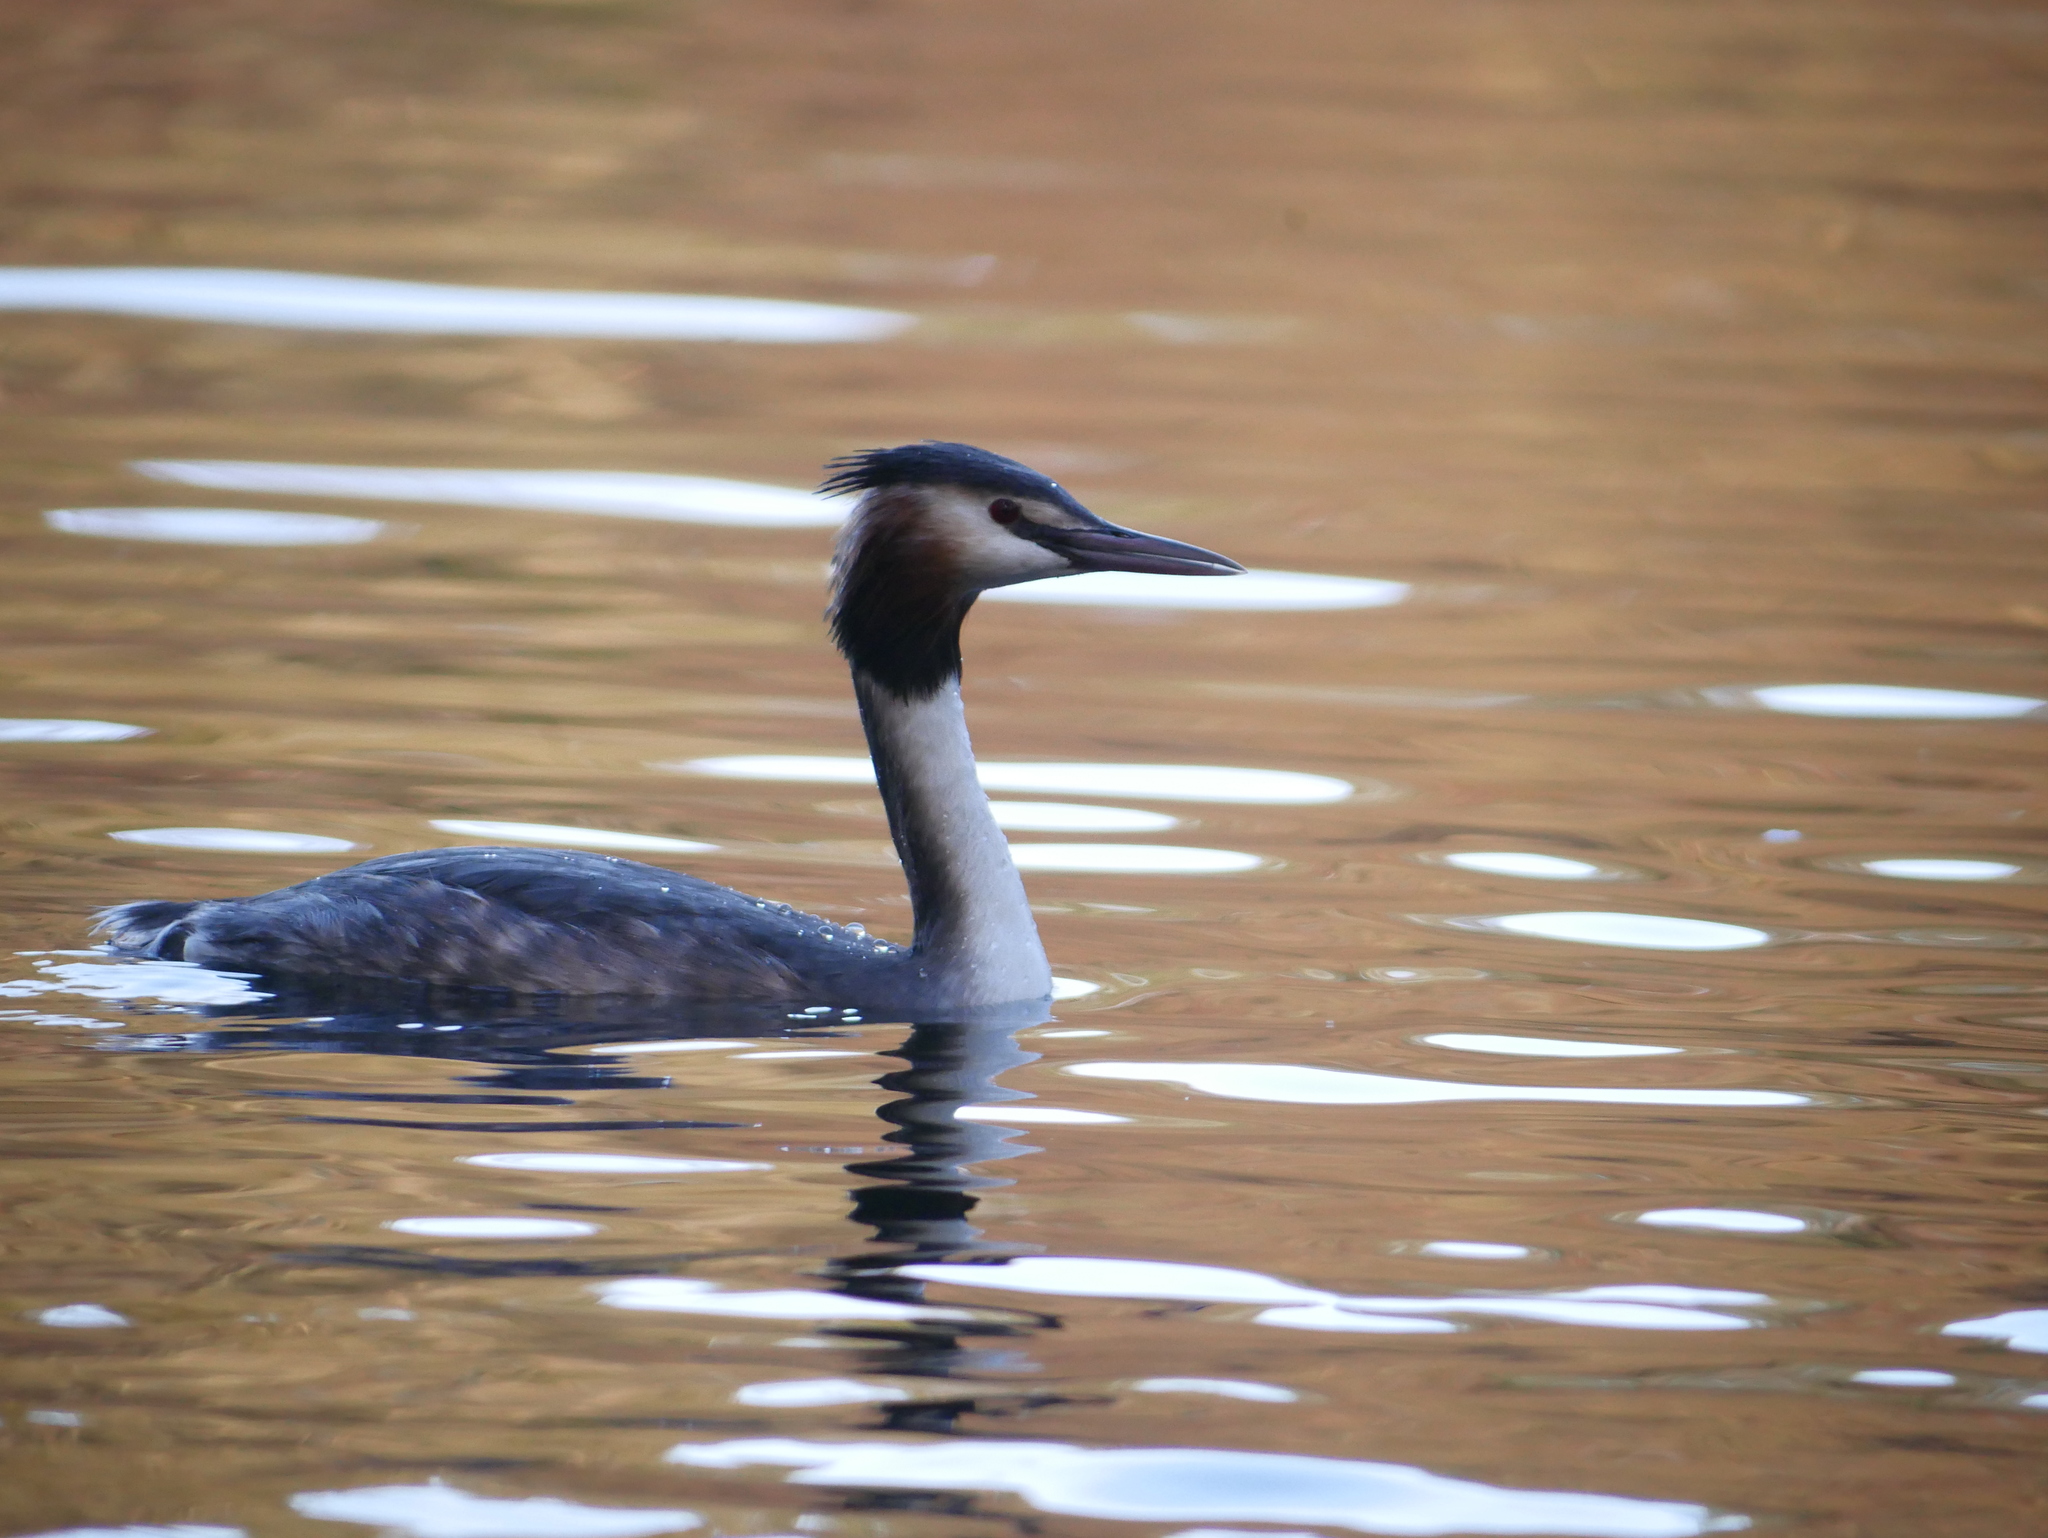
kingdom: Animalia
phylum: Chordata
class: Aves
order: Podicipediformes
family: Podicipedidae
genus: Podiceps
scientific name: Podiceps cristatus
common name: Great crested grebe
